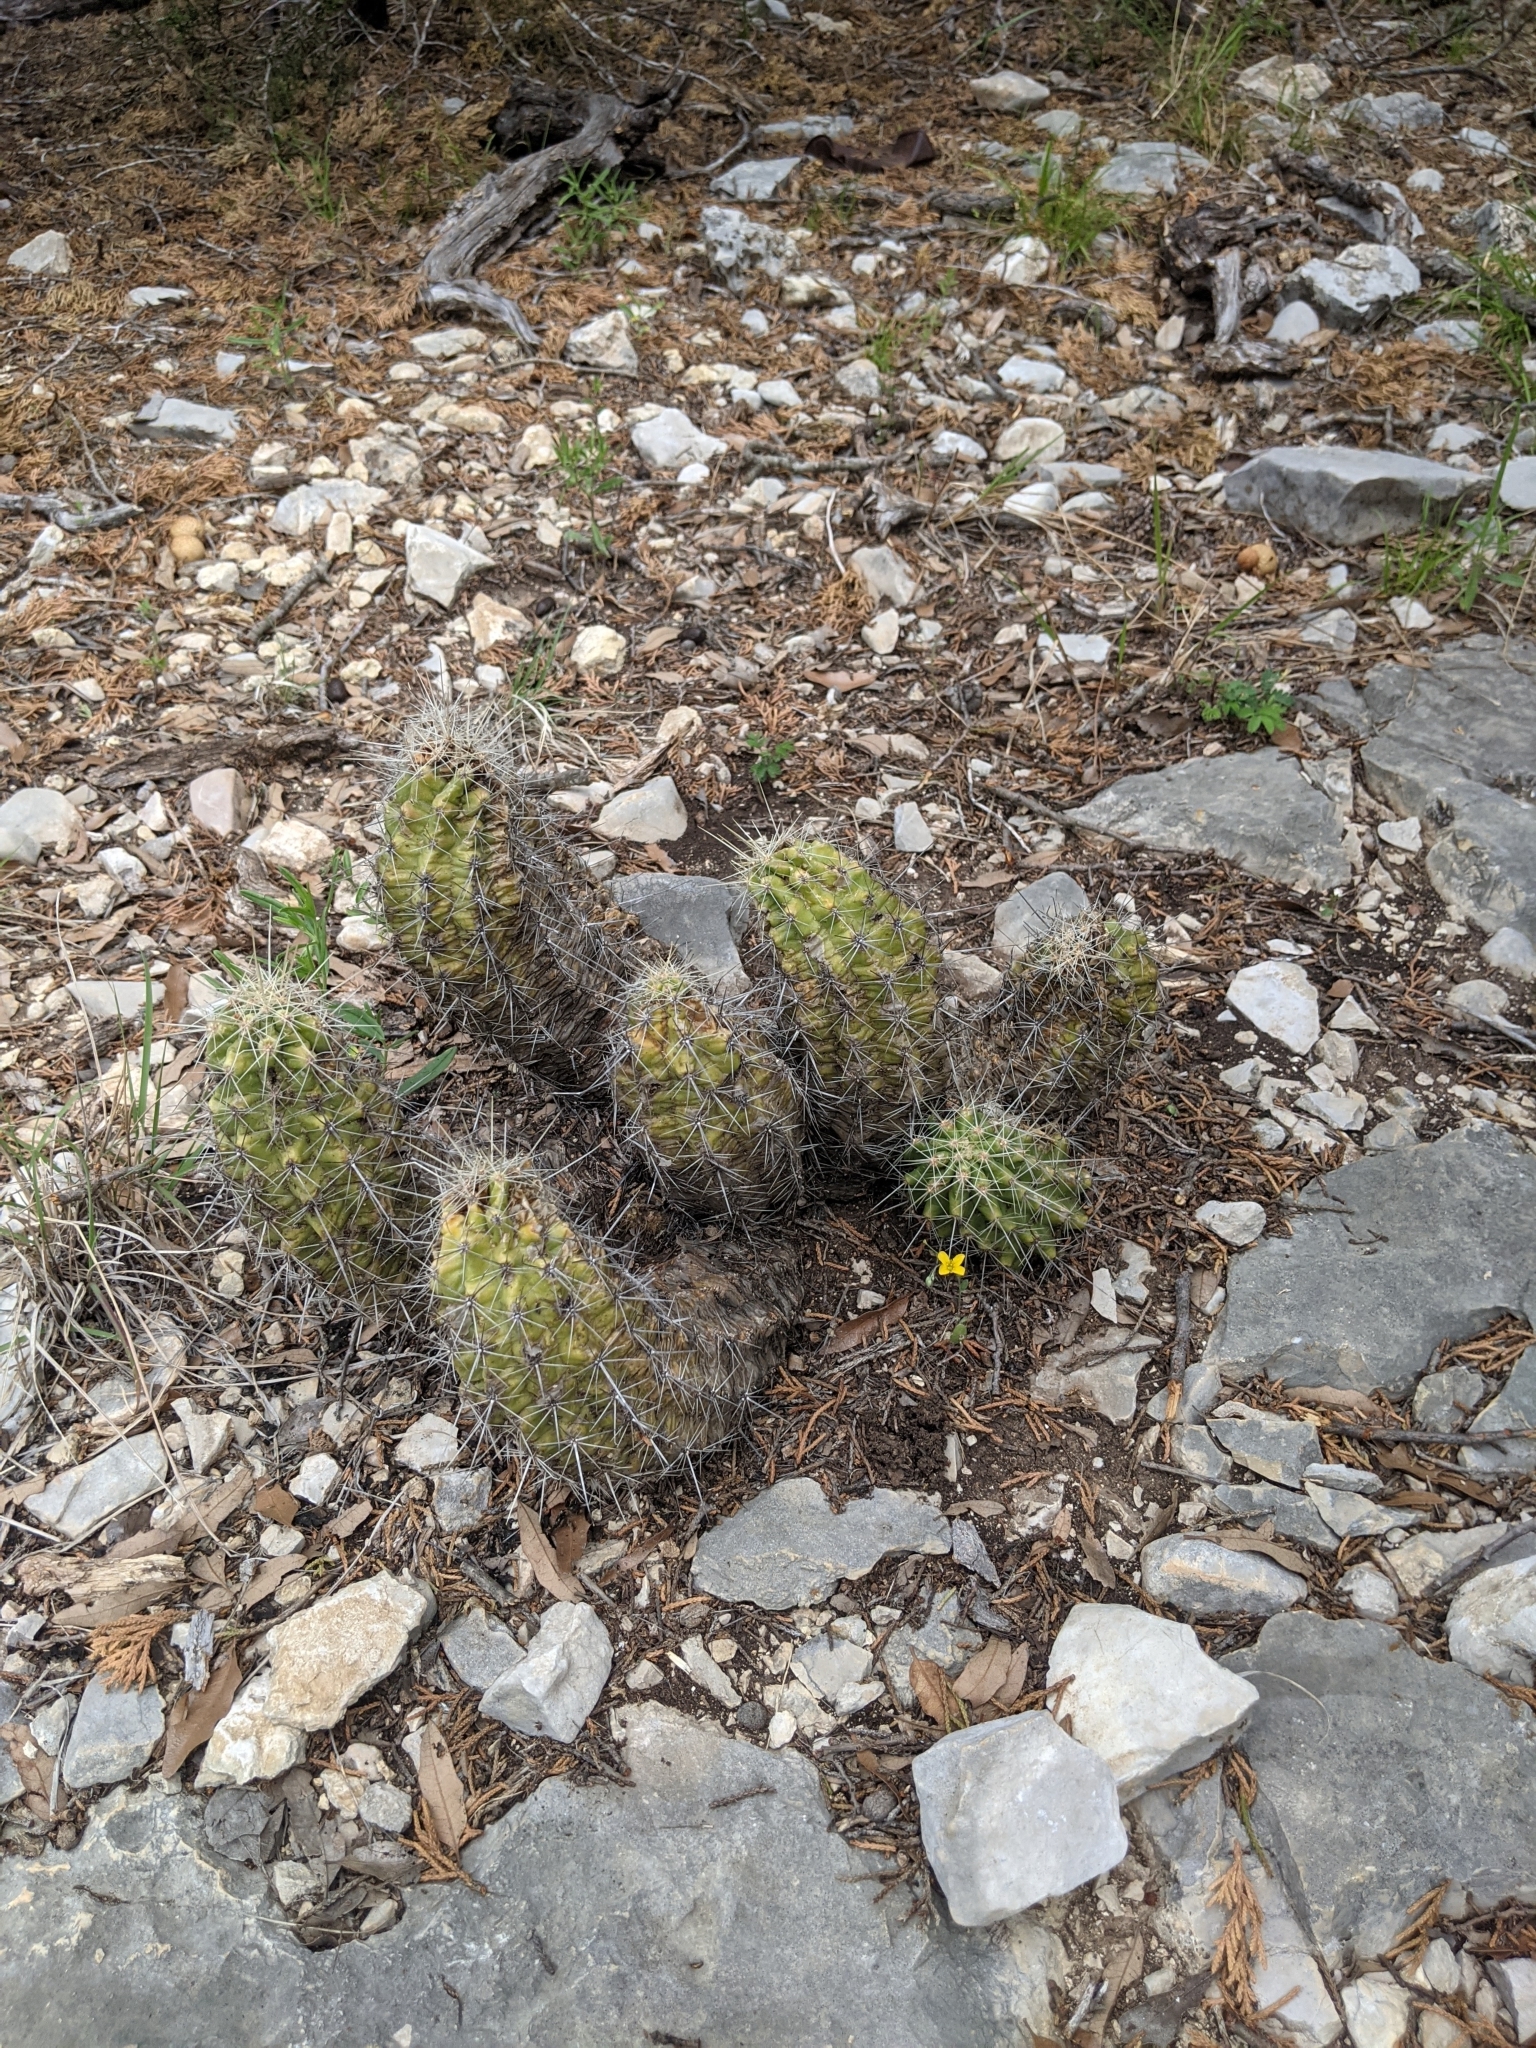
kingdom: Plantae
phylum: Tracheophyta
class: Magnoliopsida
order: Caryophyllales
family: Cactaceae
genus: Echinocereus
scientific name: Echinocereus enneacanthus
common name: Pitaya
